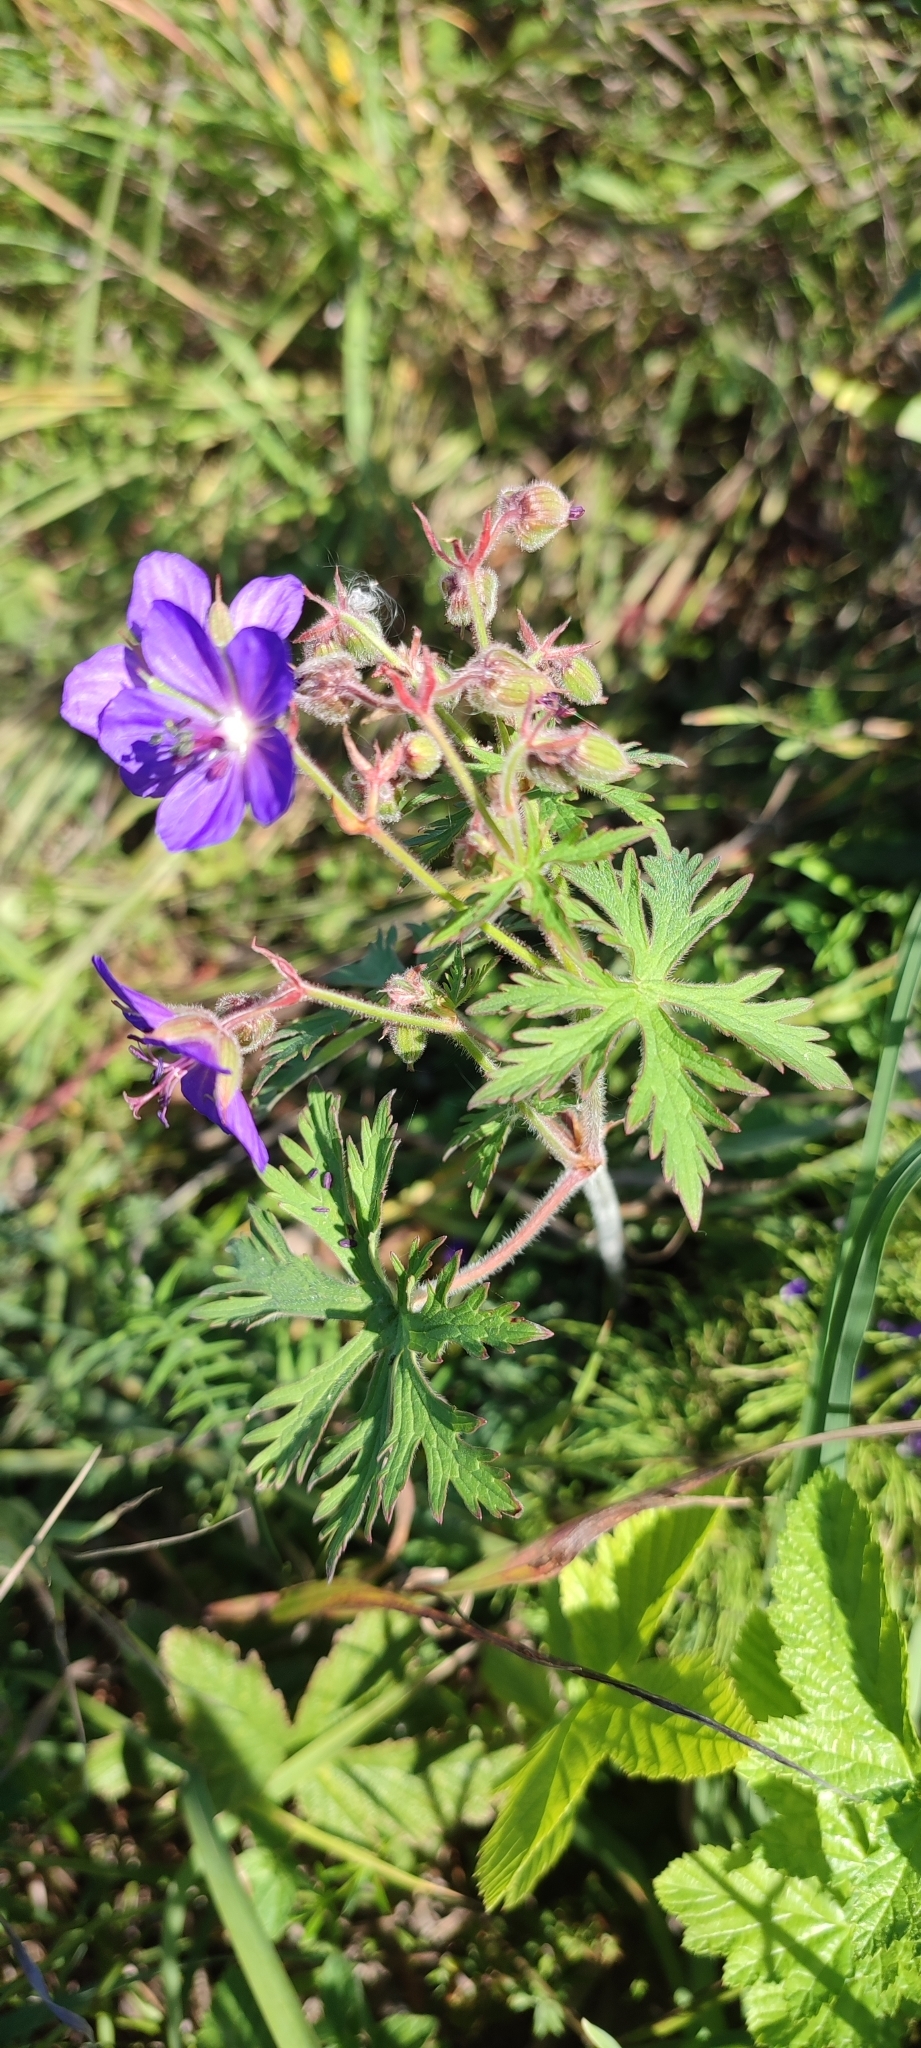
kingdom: Plantae
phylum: Tracheophyta
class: Magnoliopsida
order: Geraniales
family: Geraniaceae
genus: Geranium
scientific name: Geranium pratense
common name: Meadow crane's-bill
